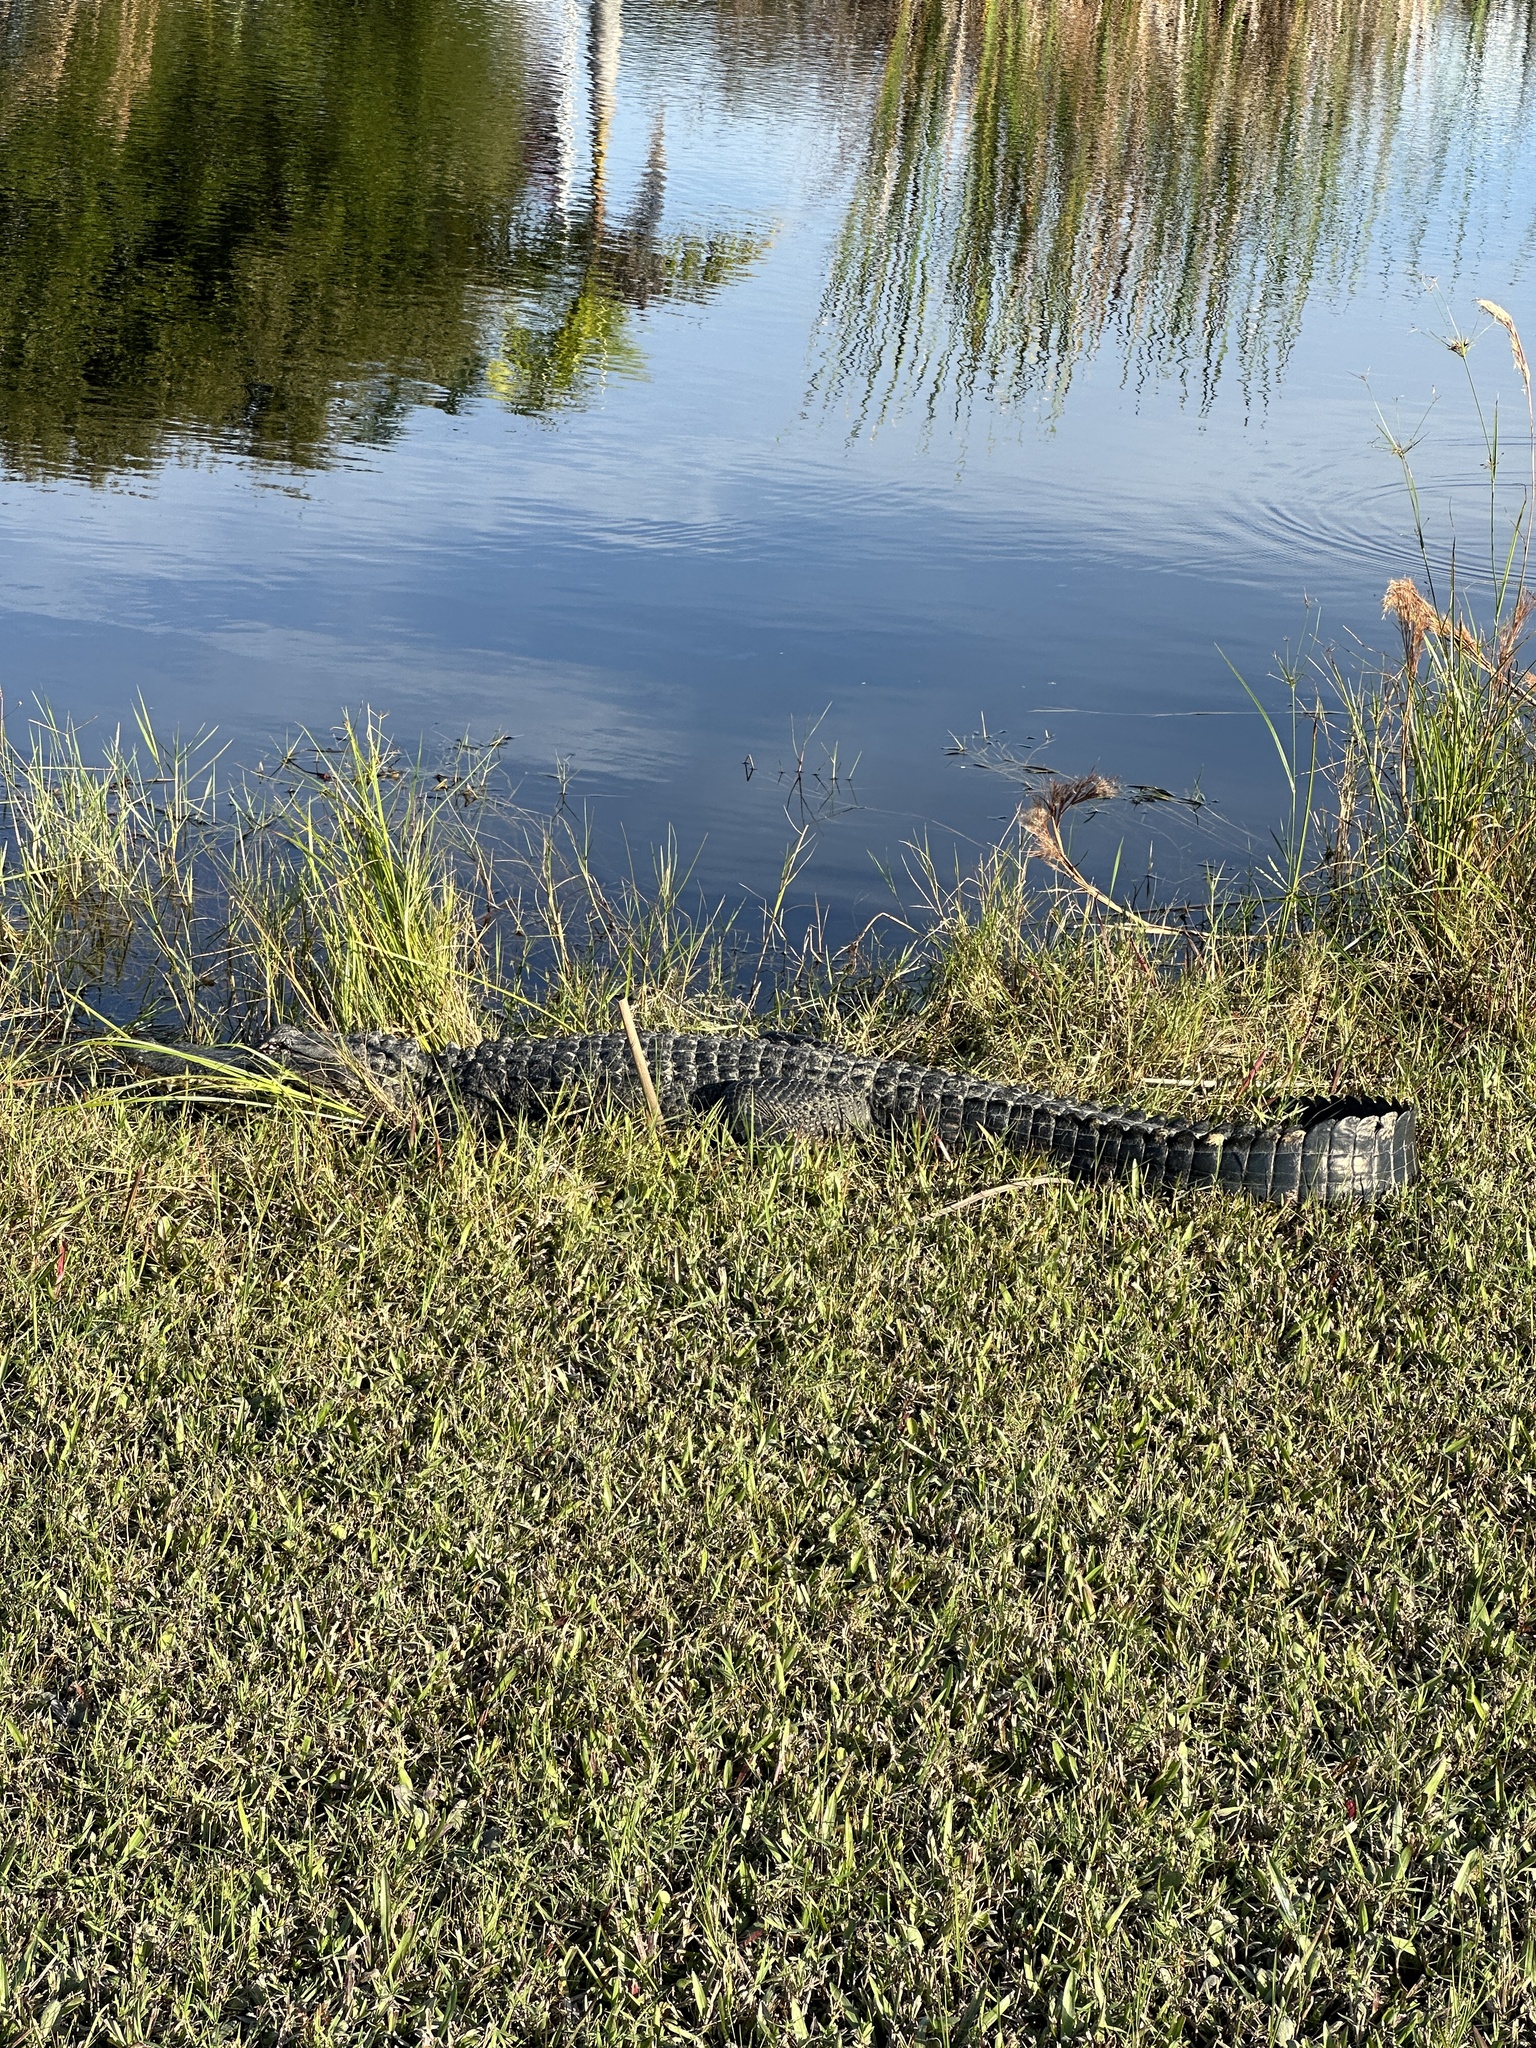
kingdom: Animalia
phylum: Chordata
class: Crocodylia
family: Alligatoridae
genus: Alligator
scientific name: Alligator mississippiensis
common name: American alligator
